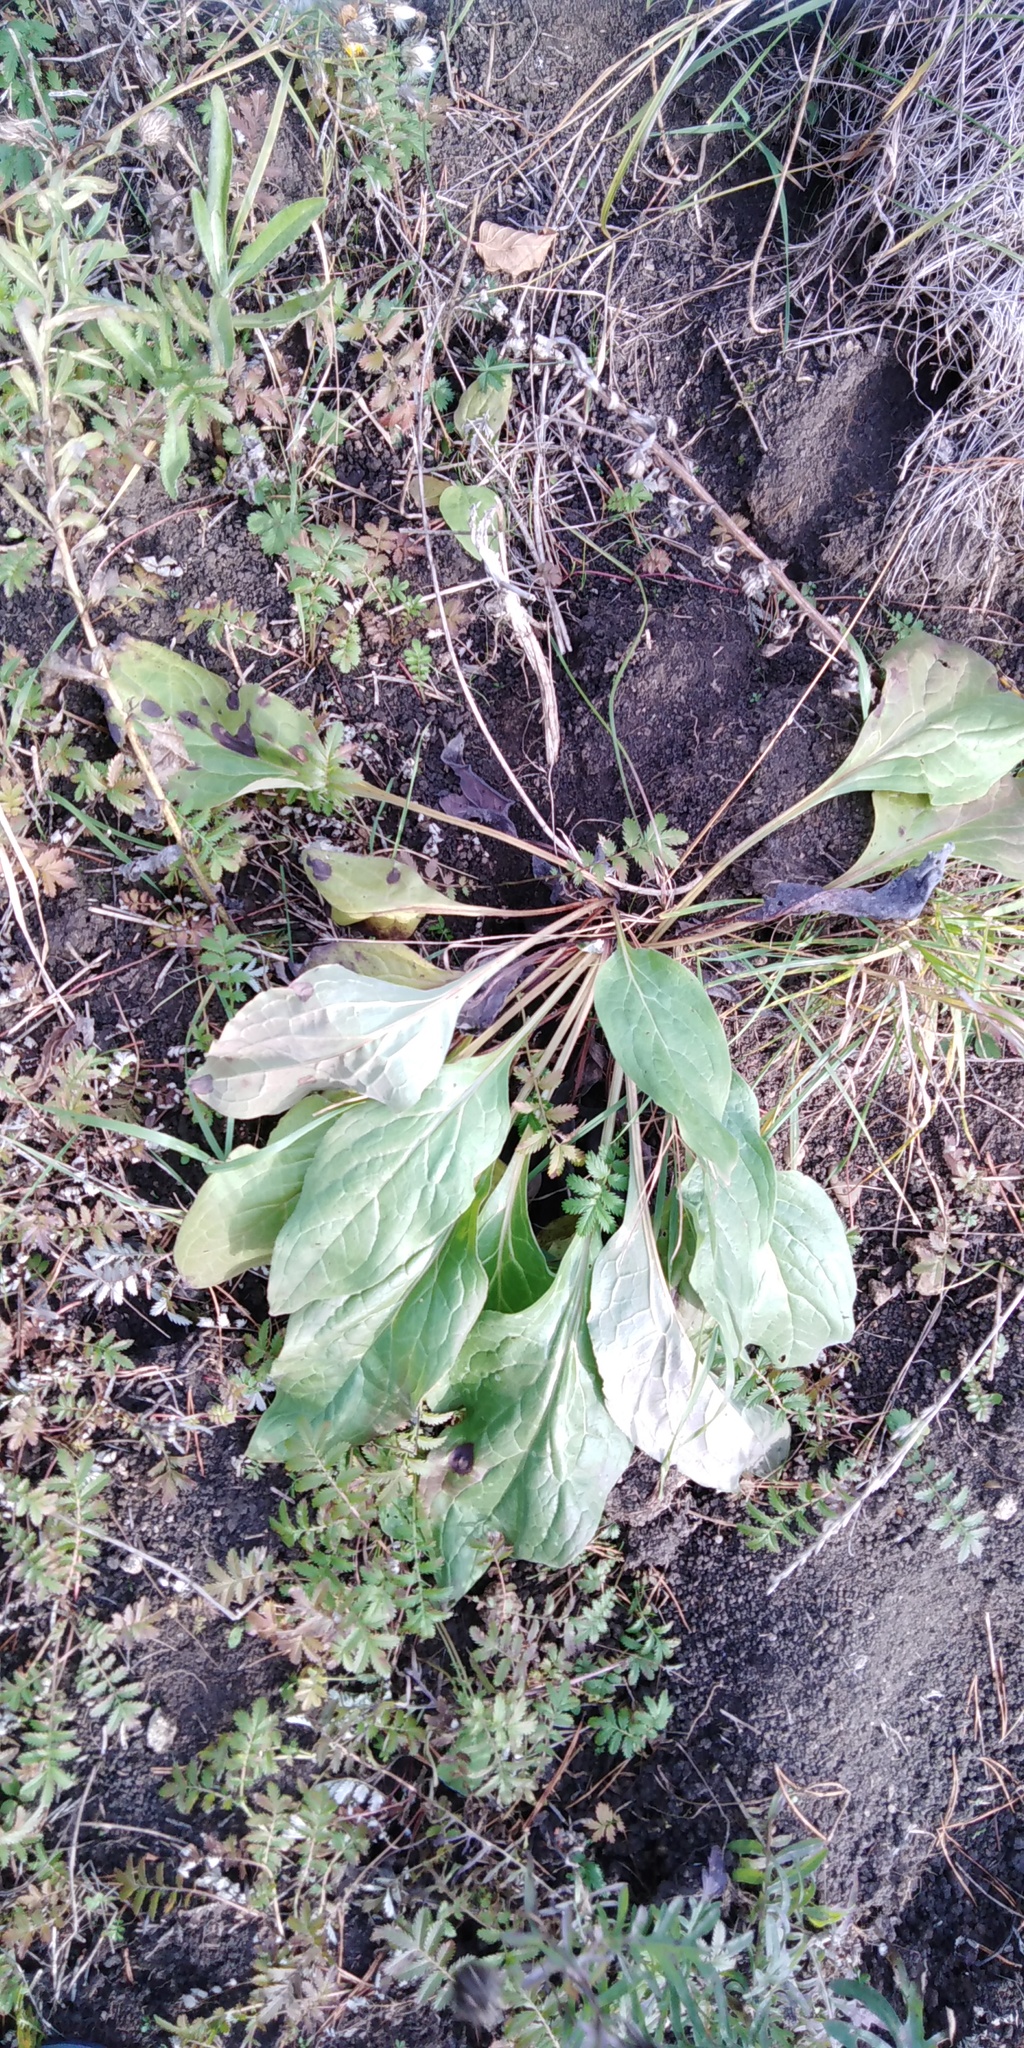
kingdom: Plantae
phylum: Tracheophyta
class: Magnoliopsida
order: Boraginales
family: Boraginaceae
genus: Cynoglossum
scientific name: Cynoglossum officinale
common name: Hound's-tongue
